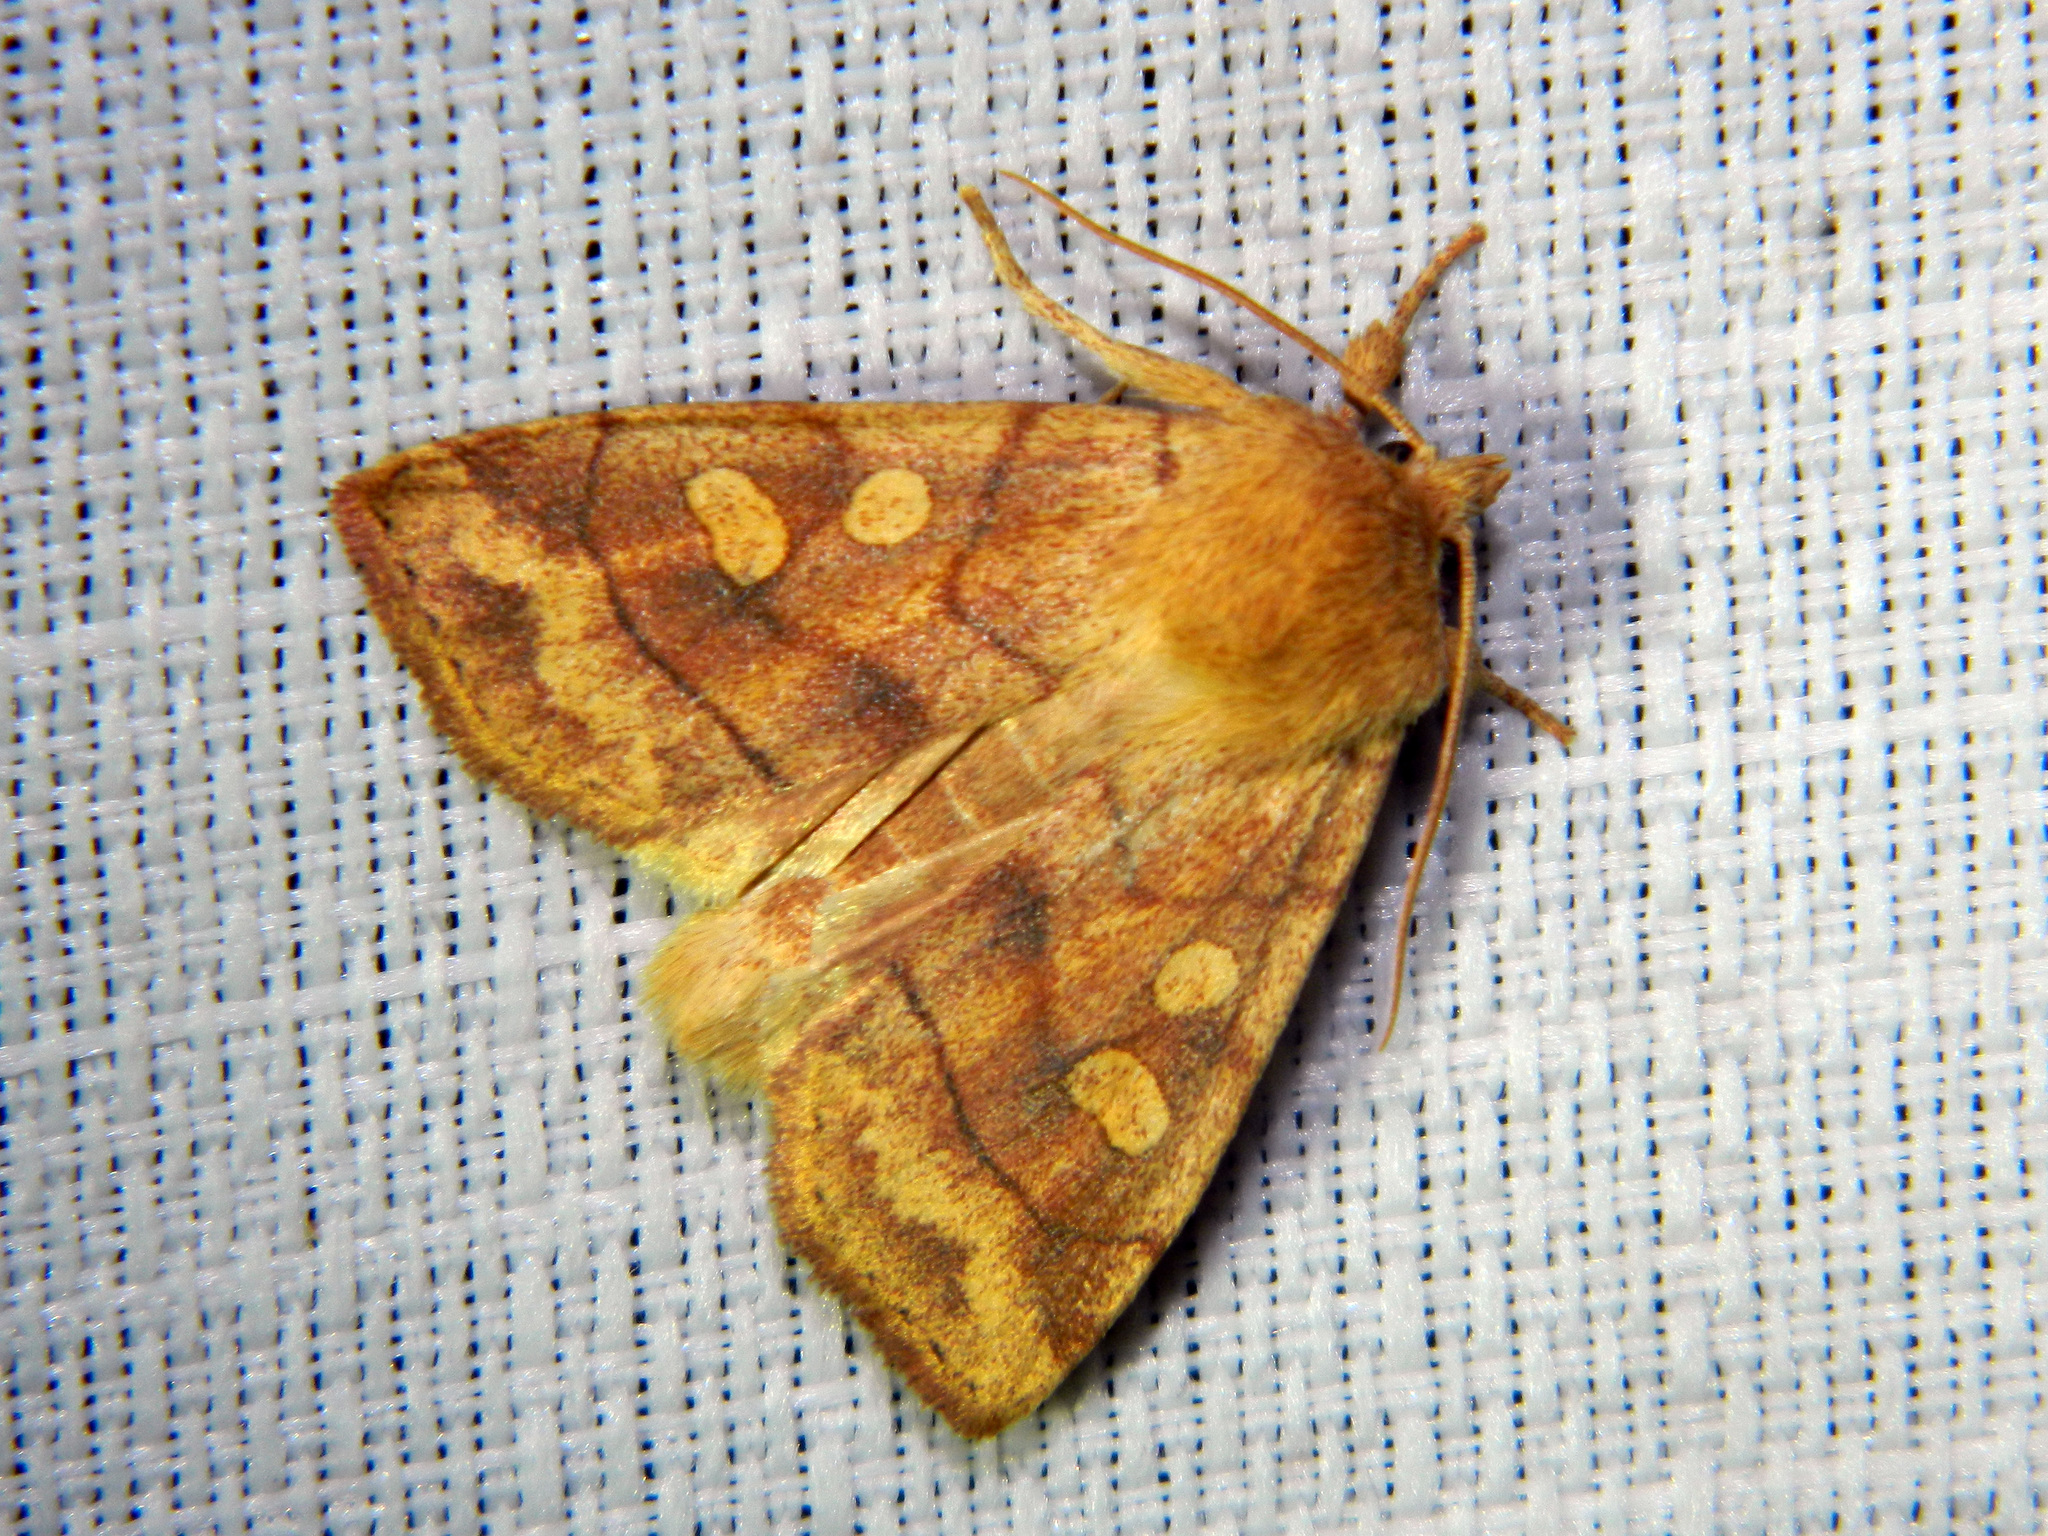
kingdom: Animalia
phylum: Arthropoda
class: Insecta
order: Lepidoptera
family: Noctuidae
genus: Enargia
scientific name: Enargia decolor
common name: Aspen twoleaf tier moth
